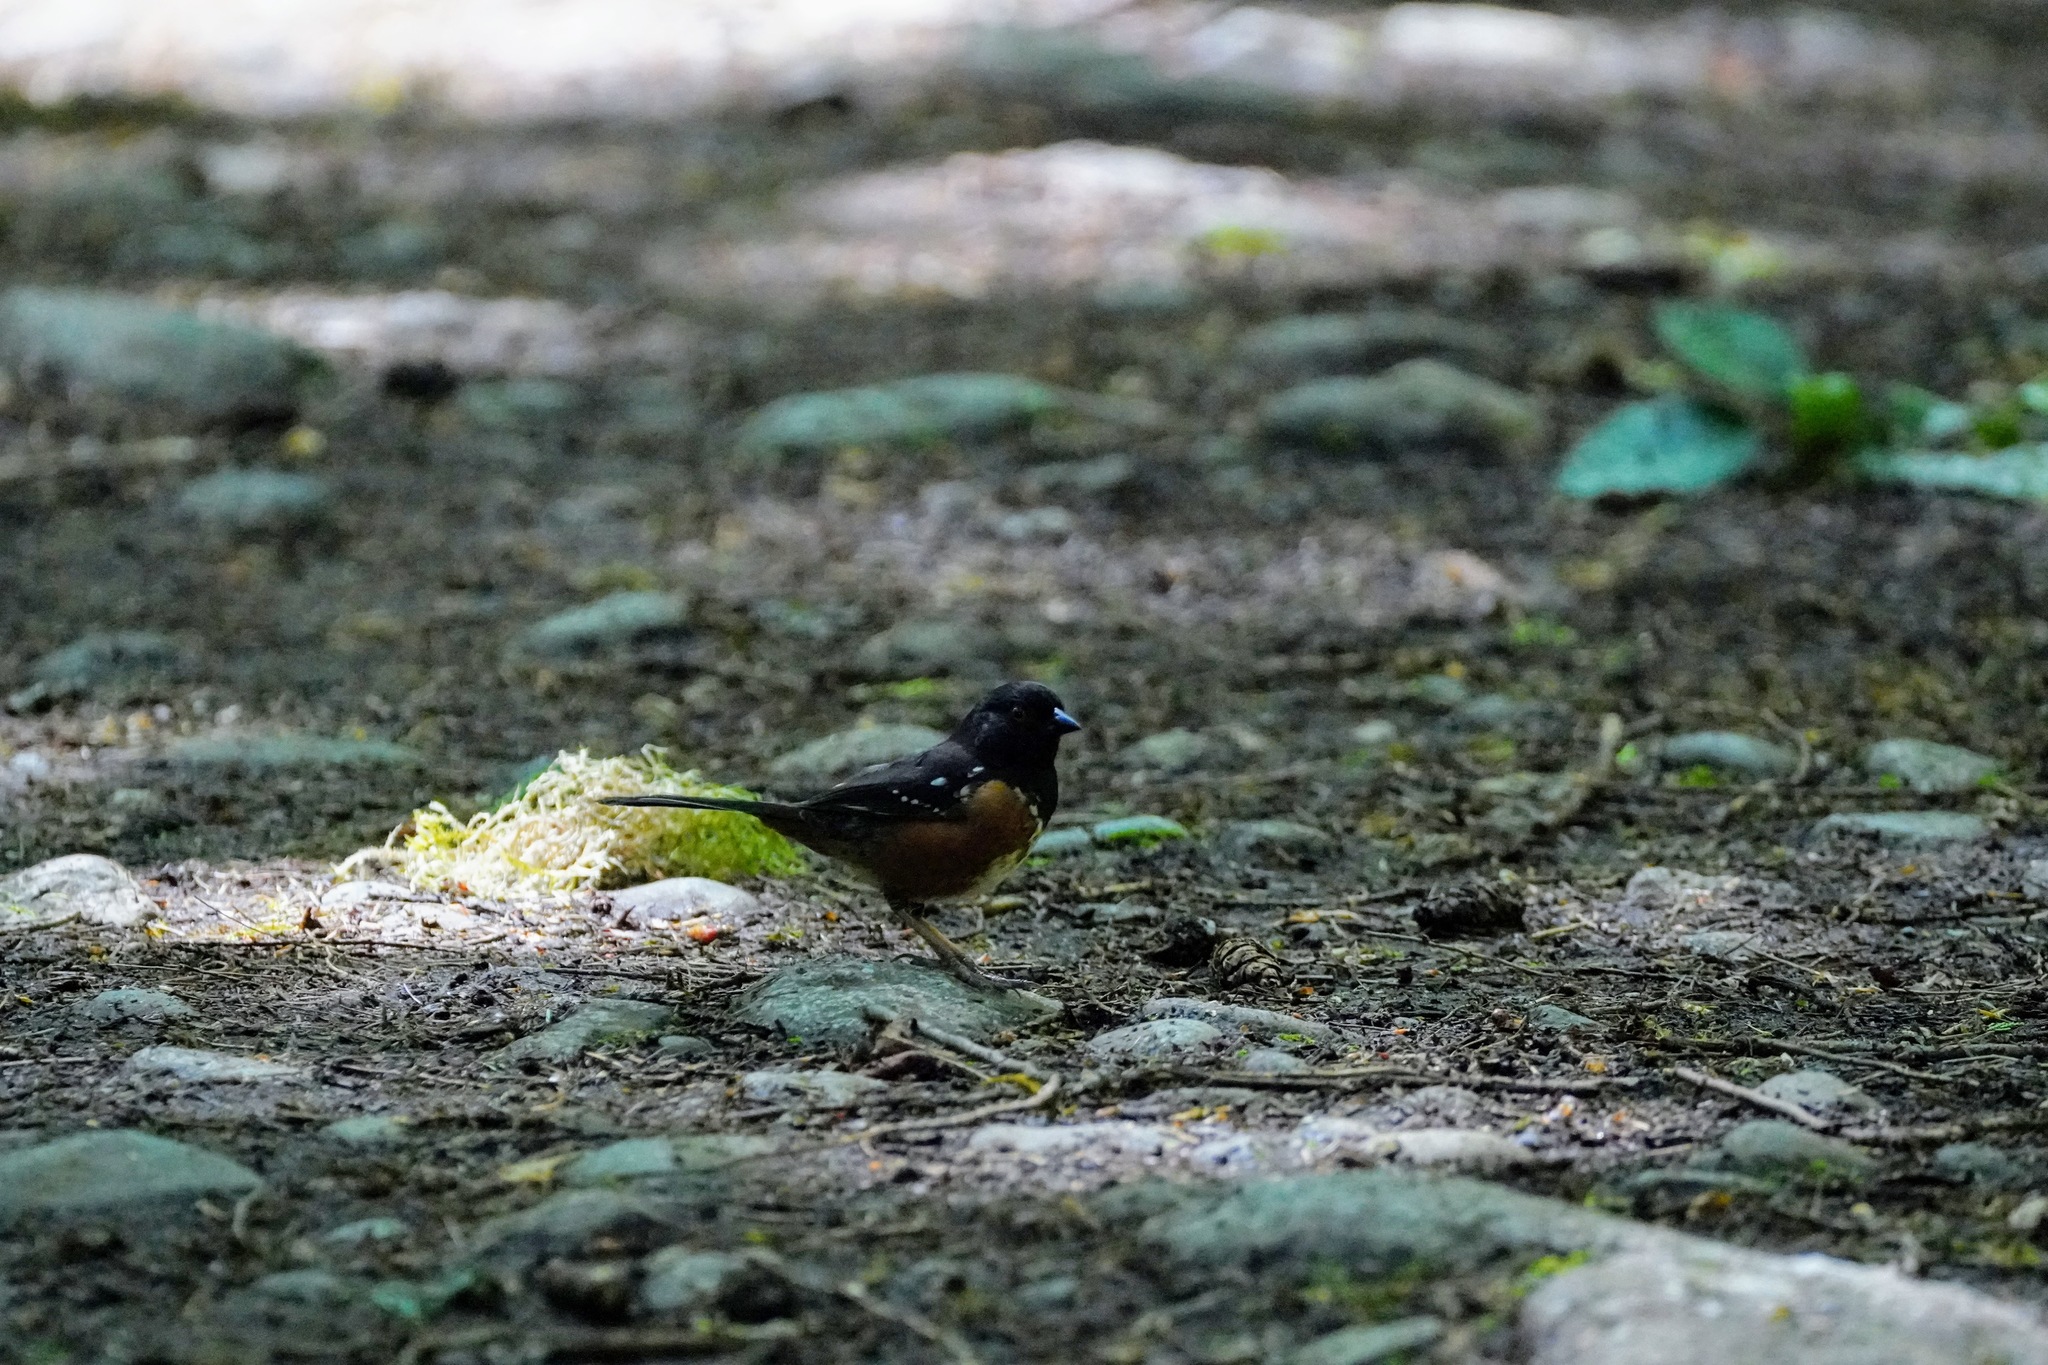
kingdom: Animalia
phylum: Chordata
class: Aves
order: Passeriformes
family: Passerellidae
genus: Pipilo
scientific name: Pipilo maculatus
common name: Spotted towhee
